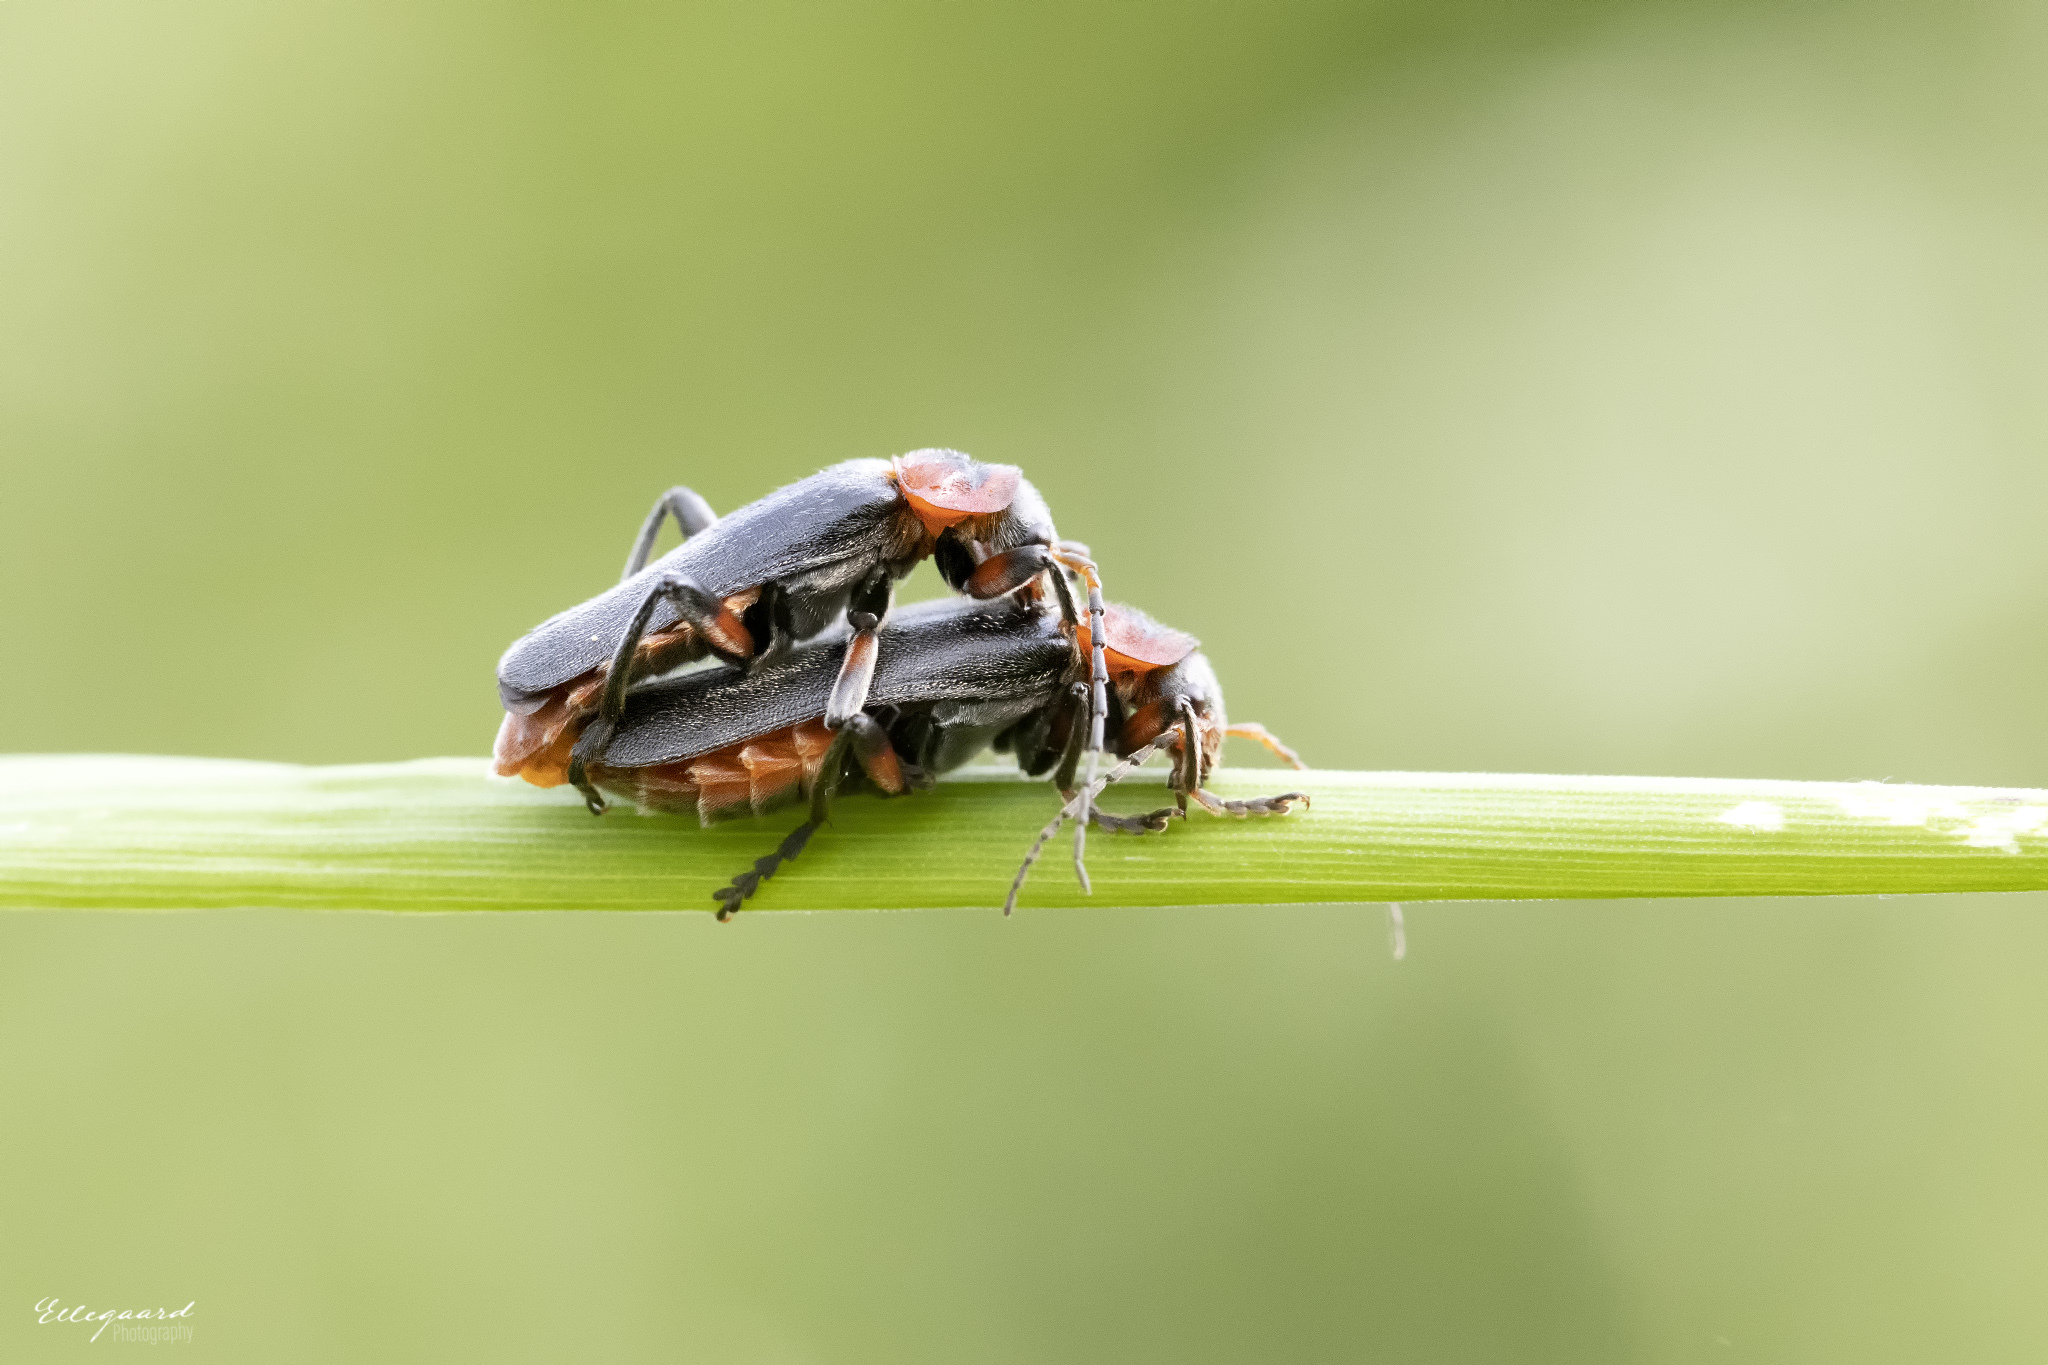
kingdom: Animalia
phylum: Arthropoda
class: Insecta
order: Coleoptera
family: Cantharidae
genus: Cantharis
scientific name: Cantharis rustica
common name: Soldier beetle
